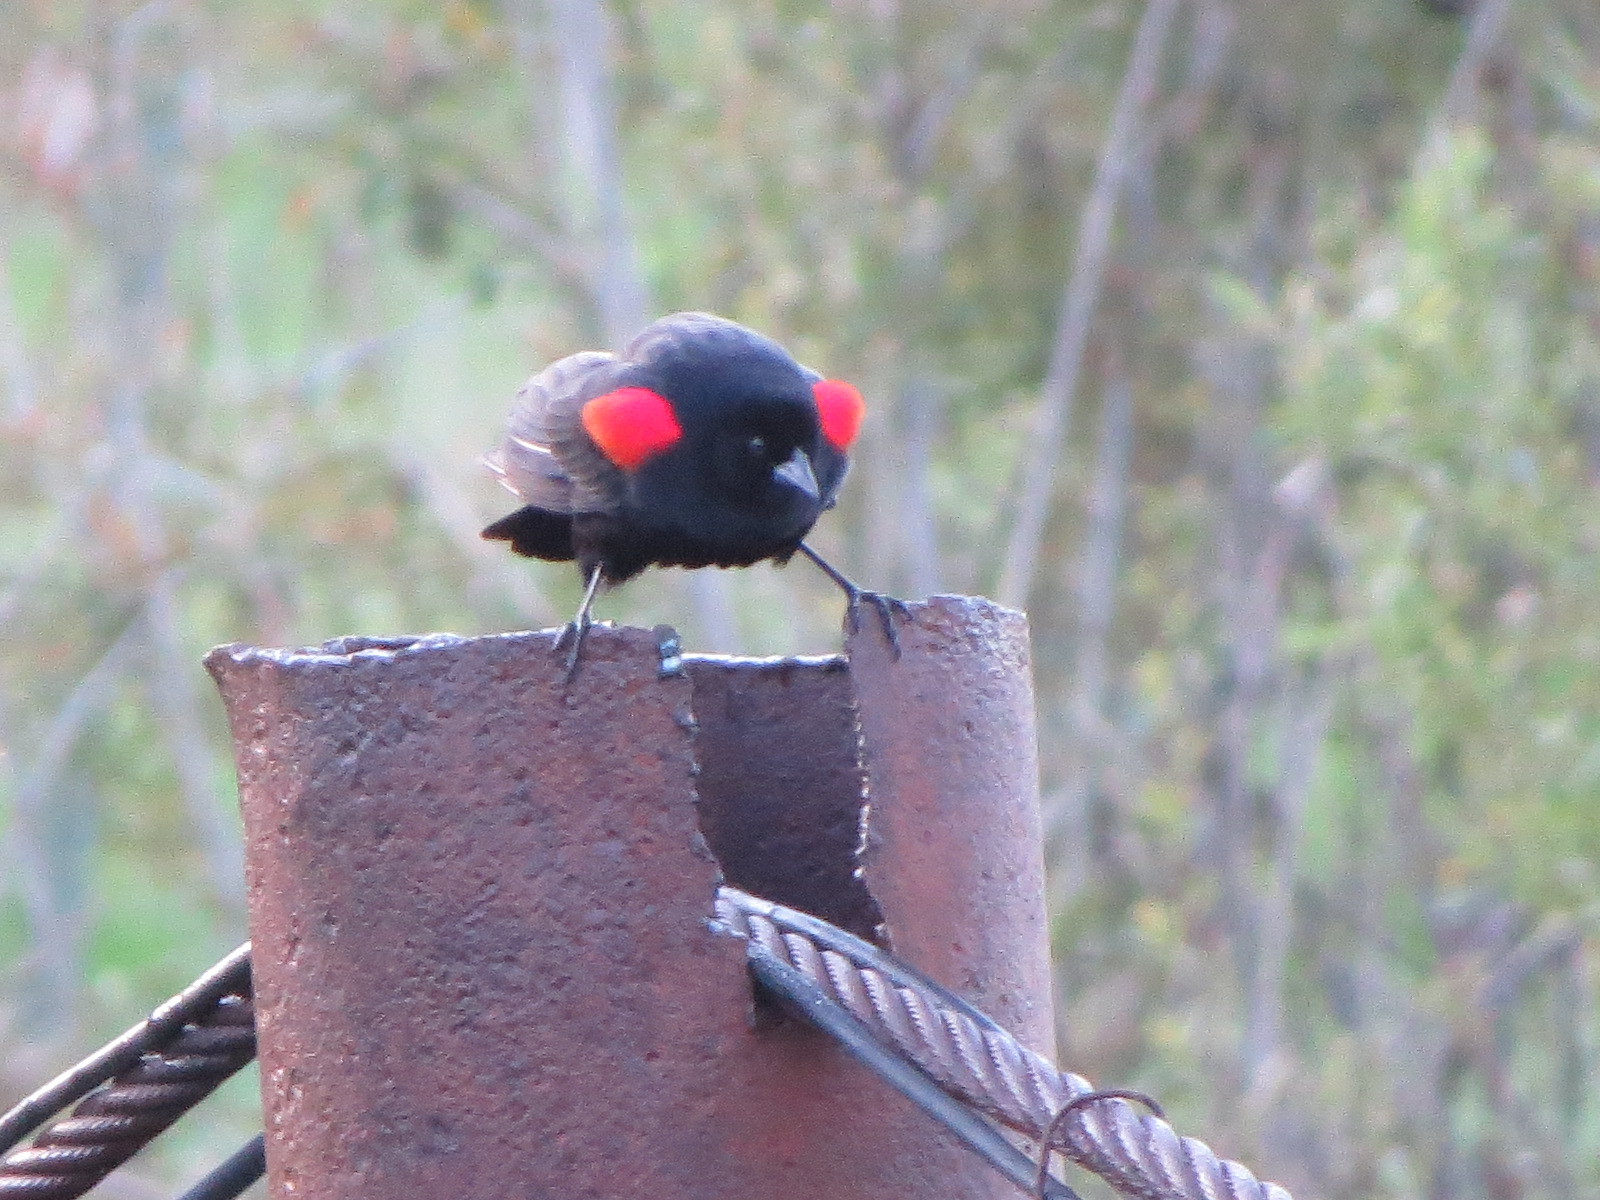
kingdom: Animalia
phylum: Chordata
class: Aves
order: Passeriformes
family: Icteridae
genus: Agelaius
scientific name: Agelaius phoeniceus
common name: Red-winged blackbird
